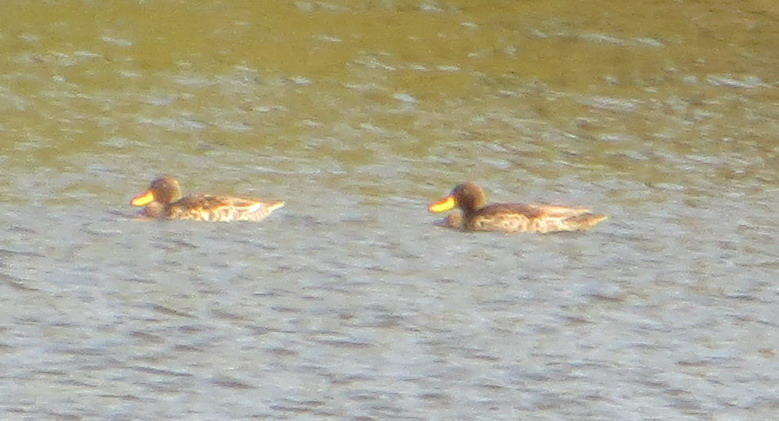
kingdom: Animalia
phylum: Chordata
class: Aves
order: Anseriformes
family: Anatidae
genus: Anas
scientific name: Anas undulata
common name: Yellow-billed duck
